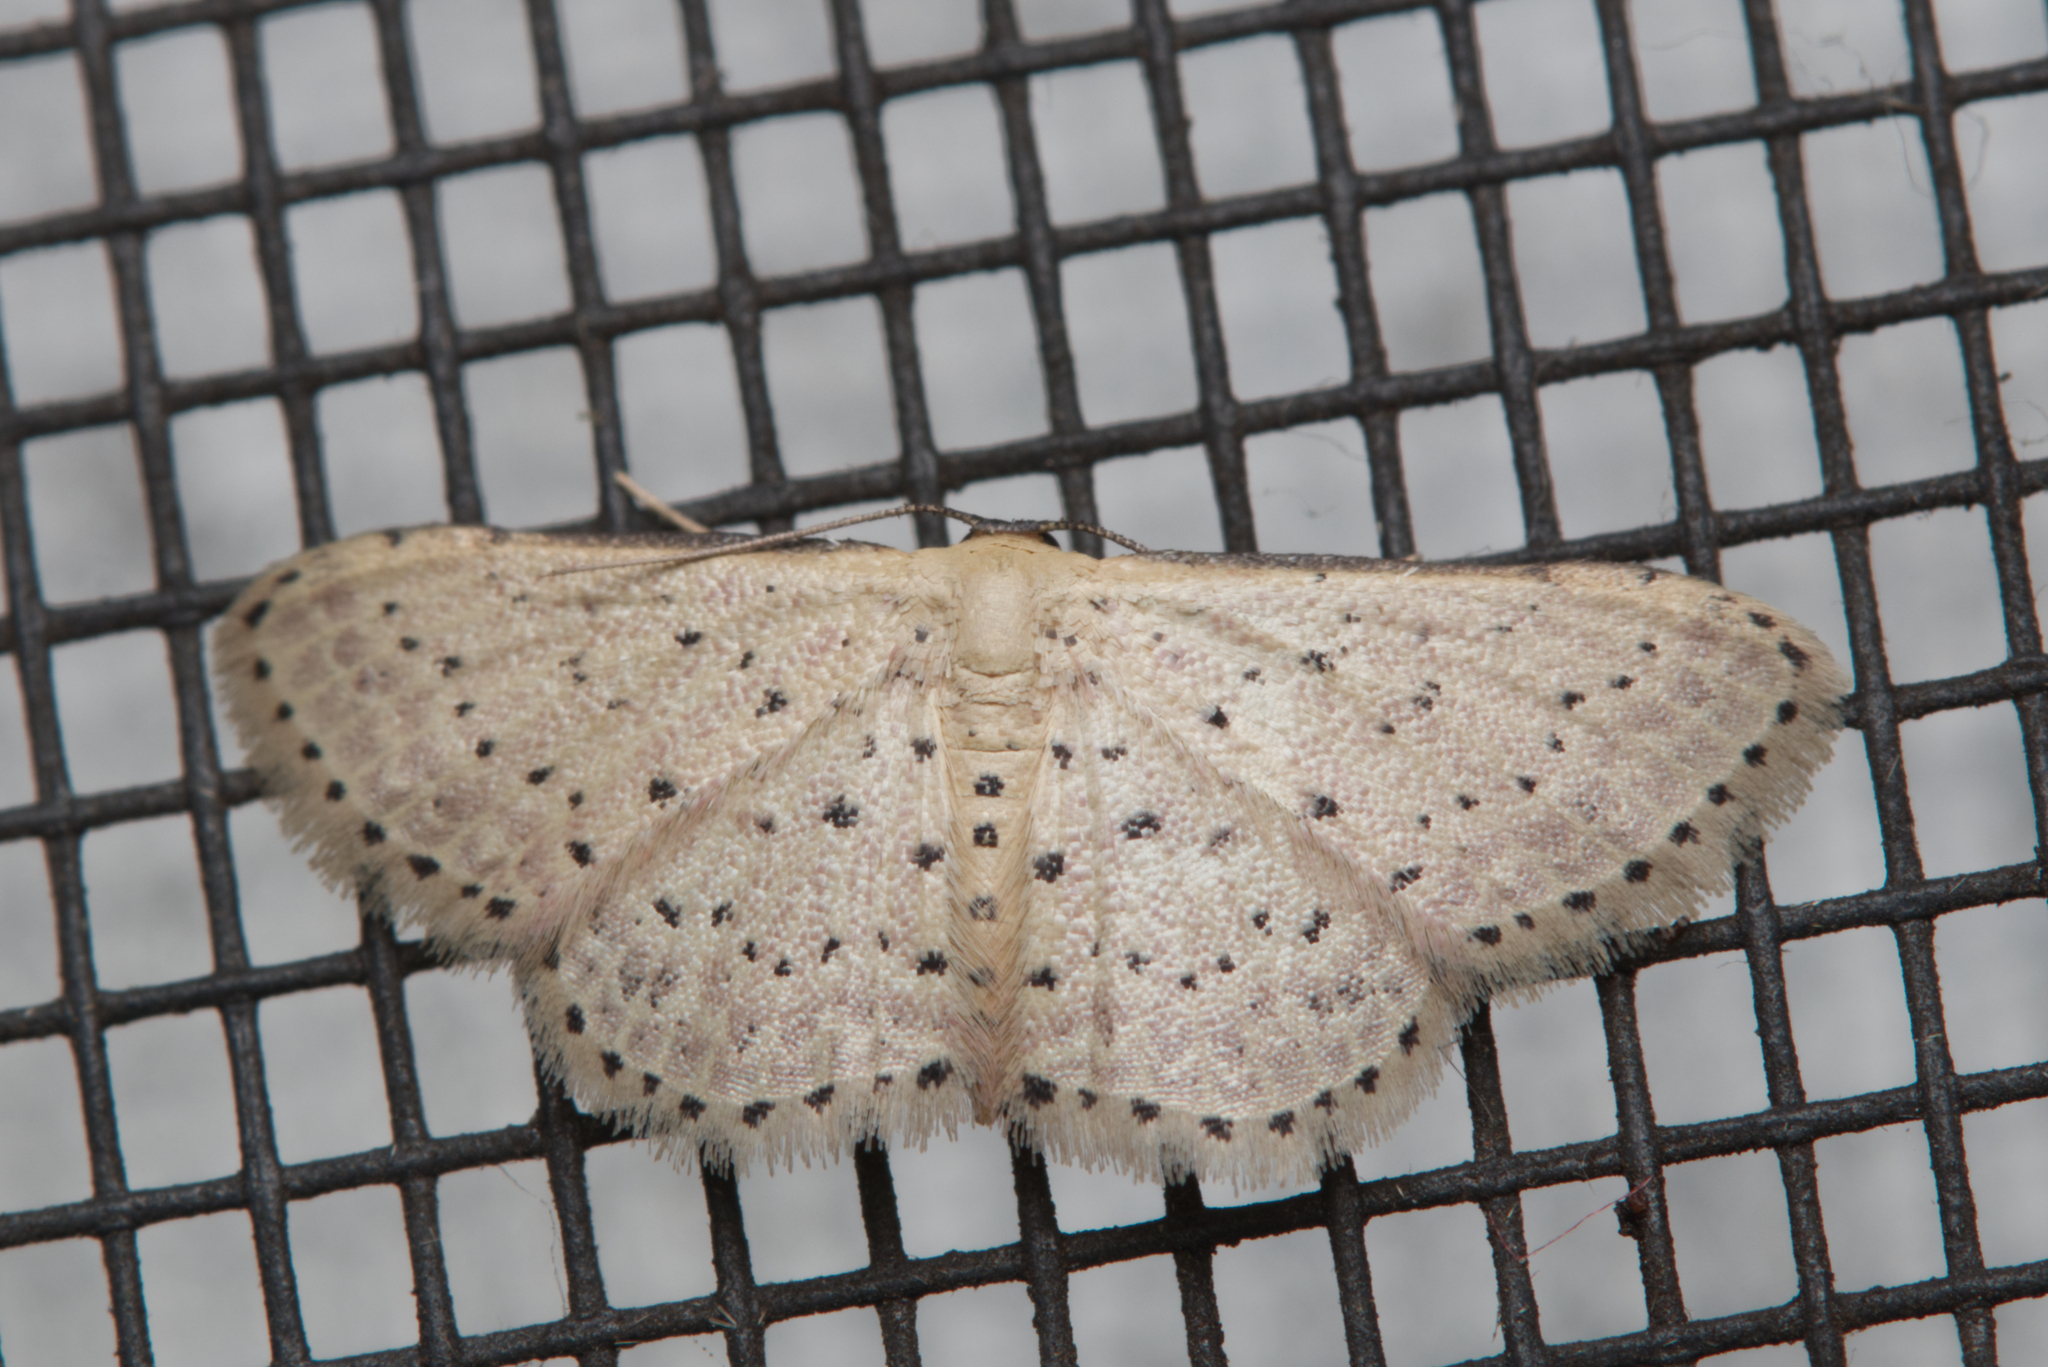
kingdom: Animalia
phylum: Arthropoda
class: Insecta
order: Lepidoptera
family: Geometridae
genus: Idaea
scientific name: Idaea punctatissima
